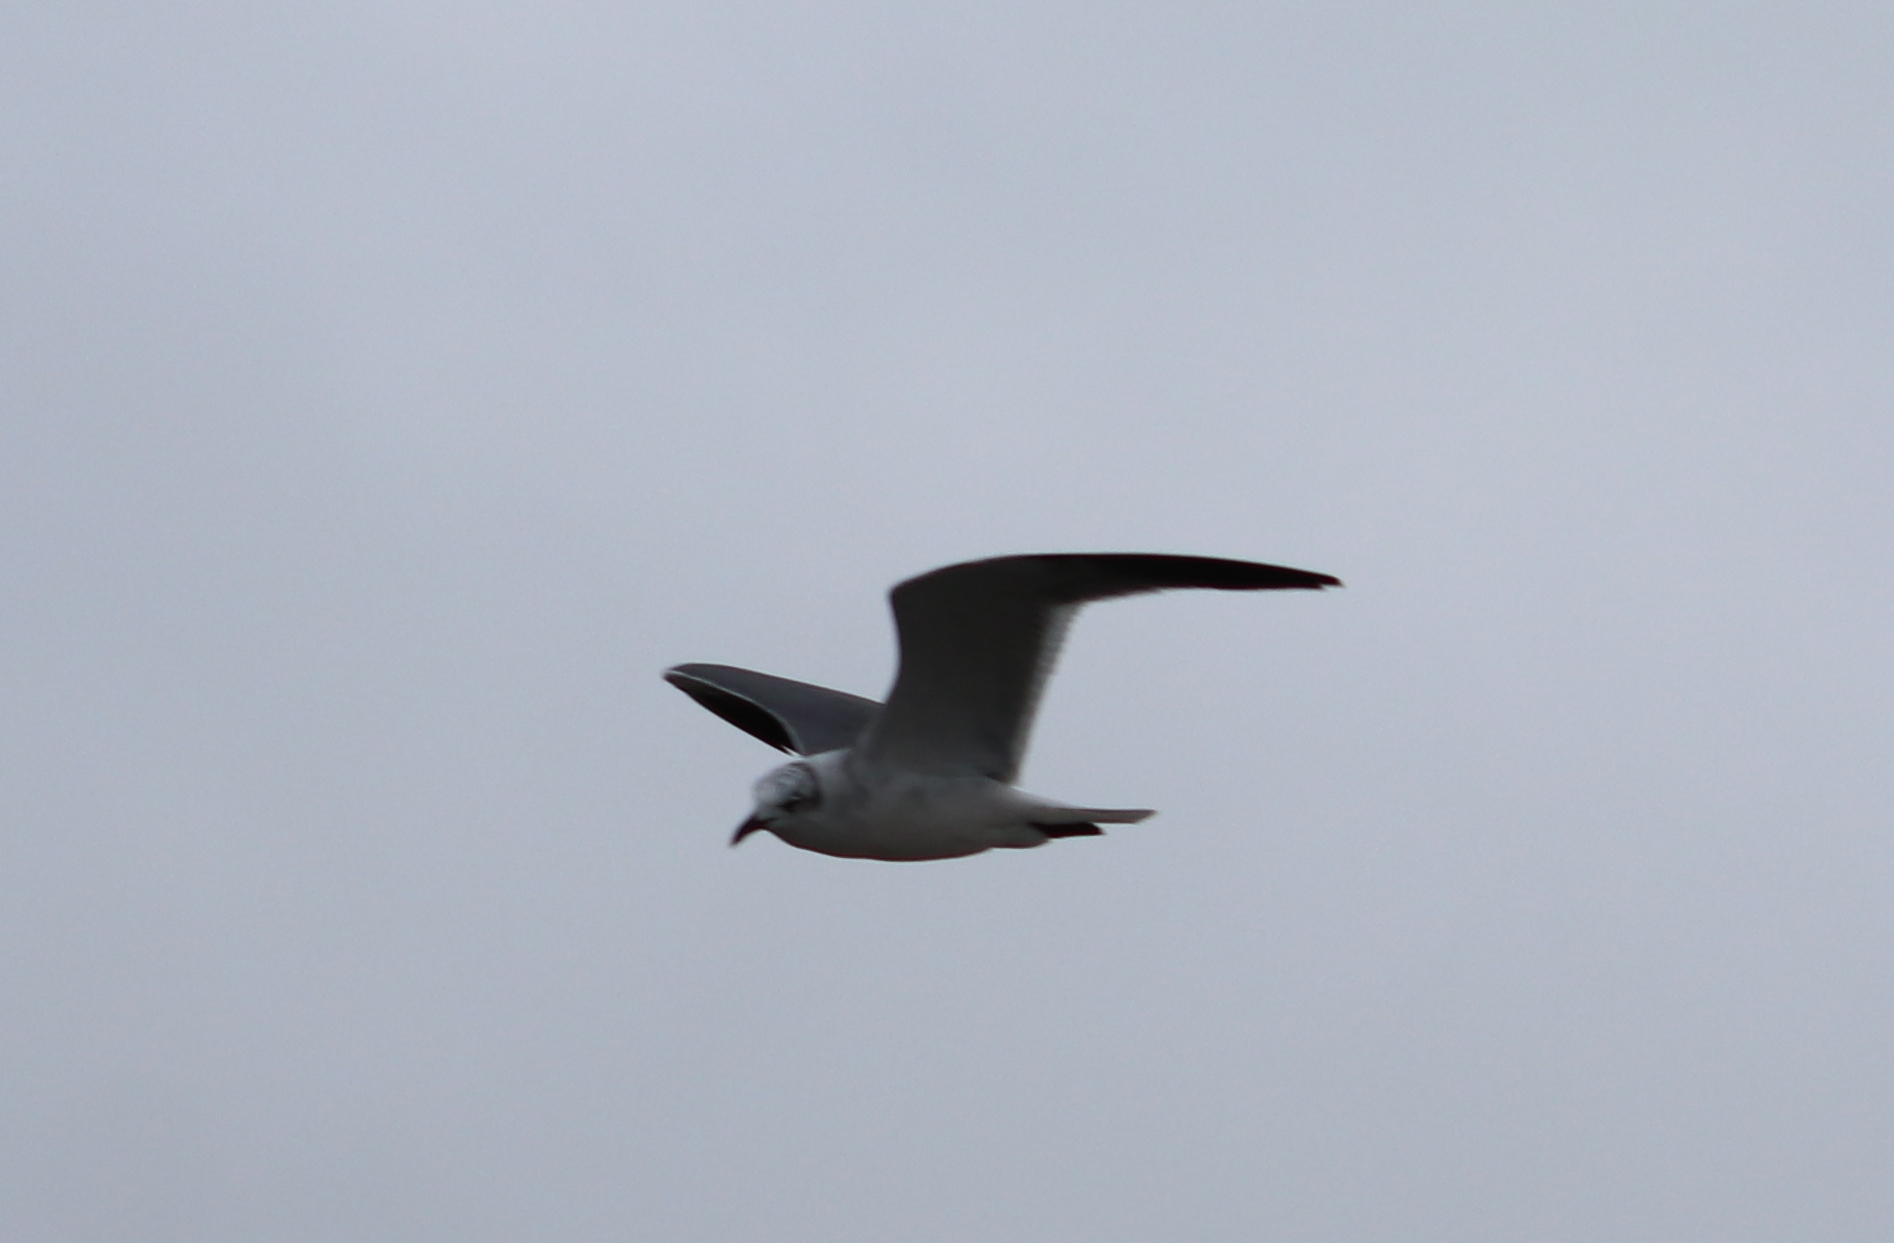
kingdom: Animalia
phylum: Chordata
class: Aves
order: Charadriiformes
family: Laridae
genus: Leucophaeus
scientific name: Leucophaeus atricilla
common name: Laughing gull
